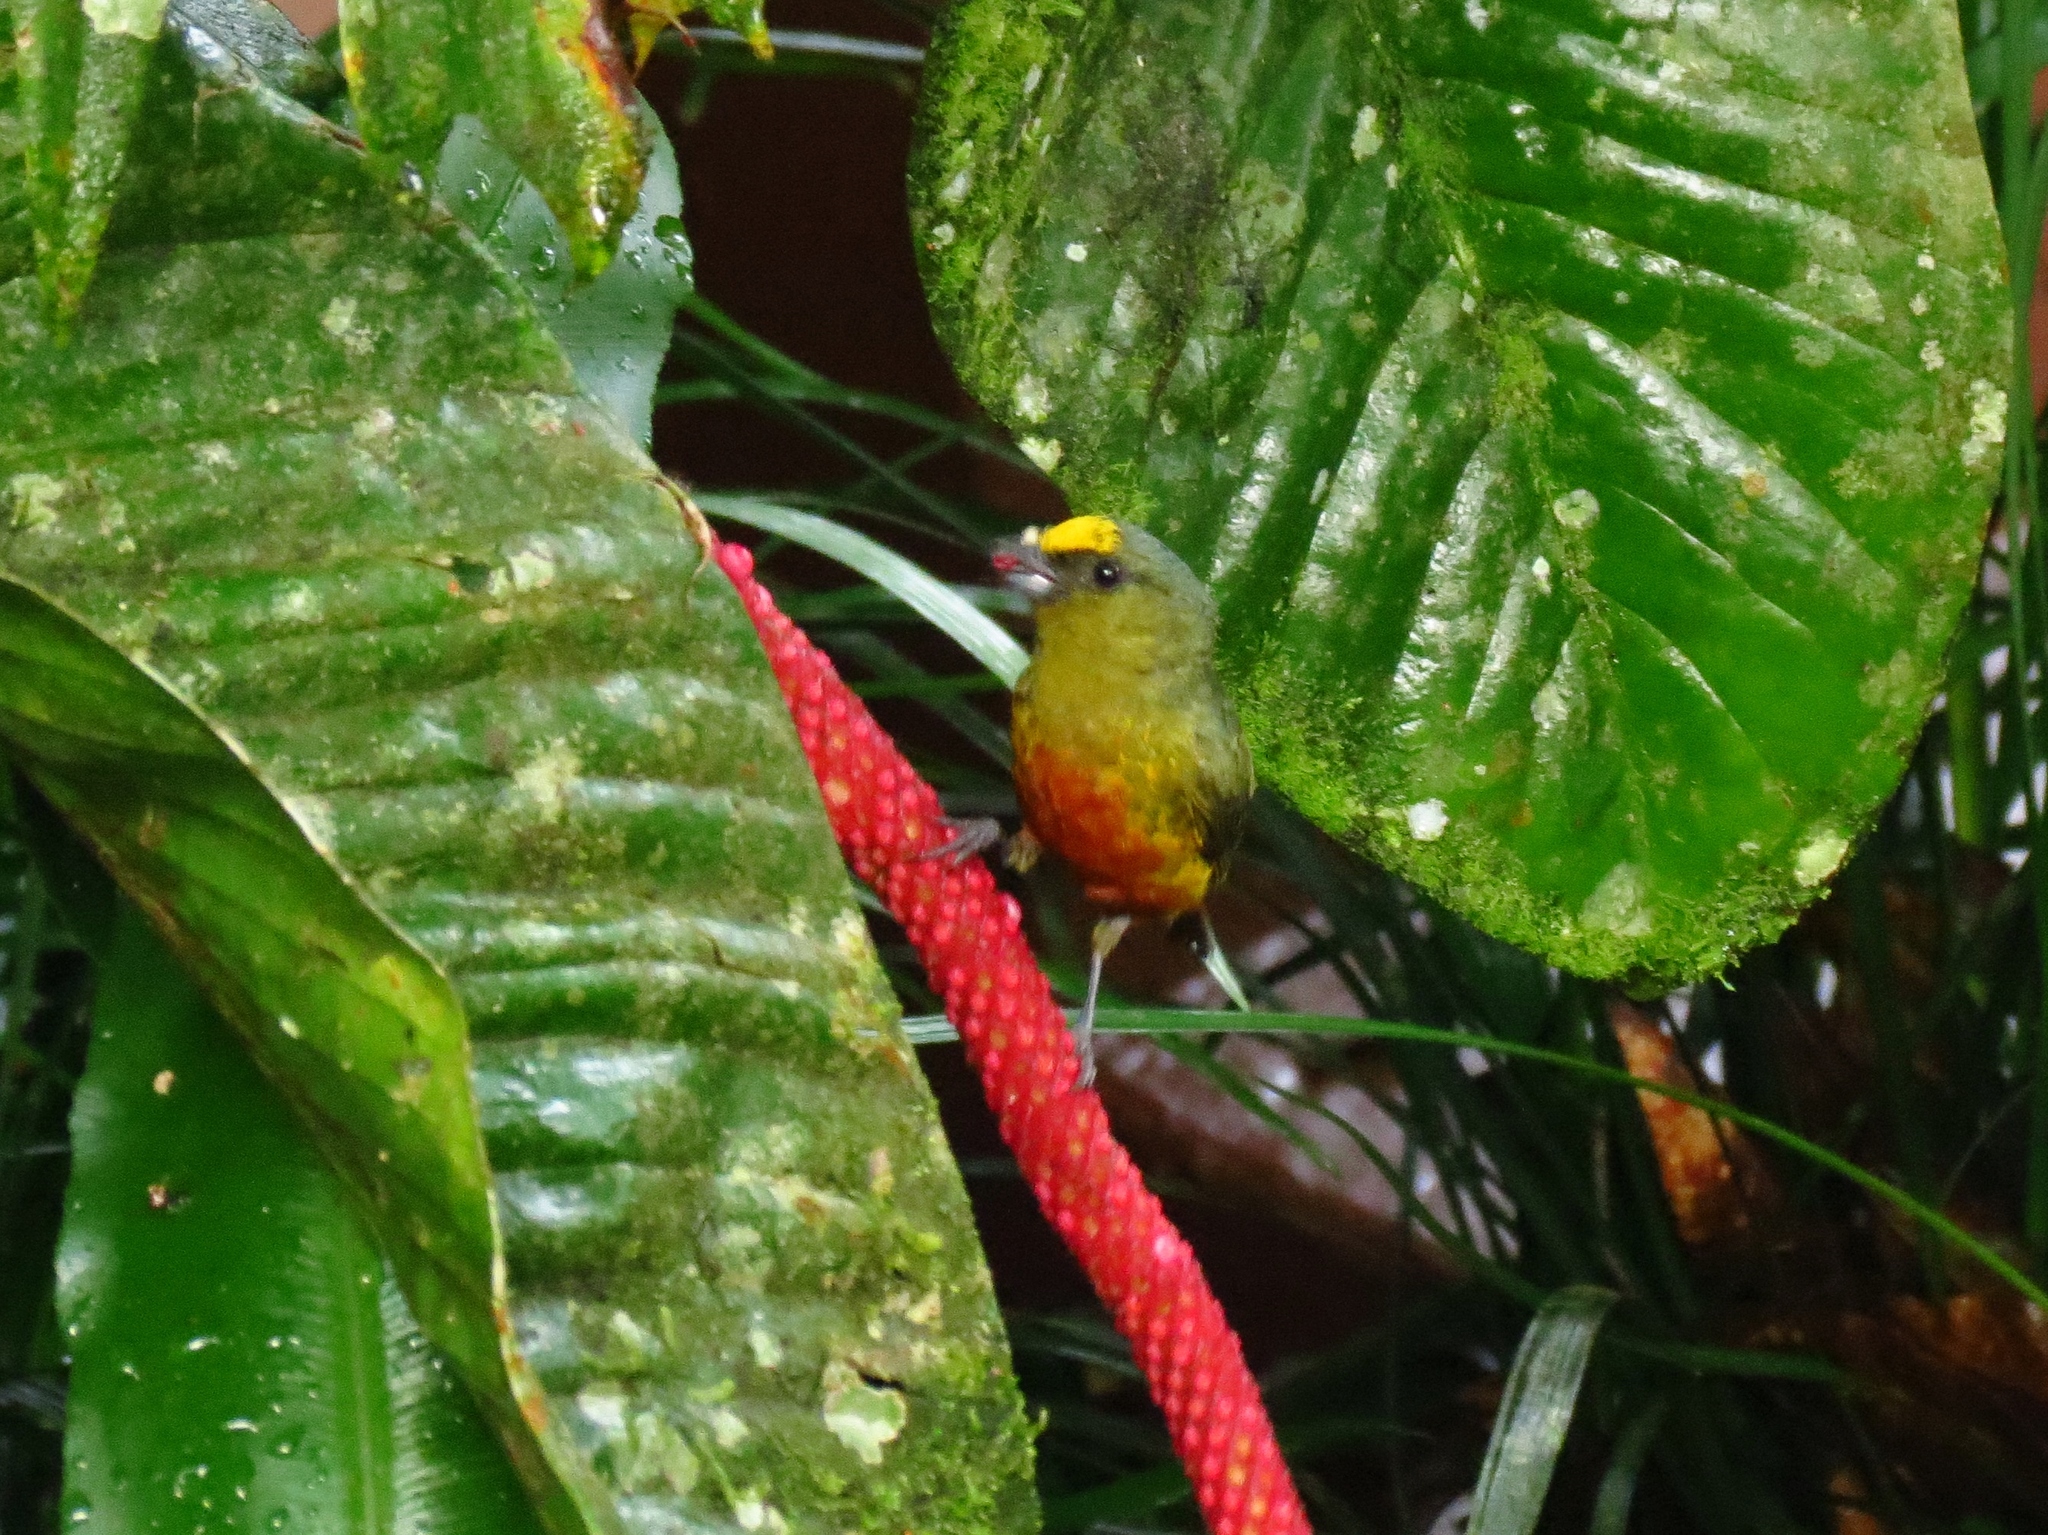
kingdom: Animalia
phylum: Chordata
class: Aves
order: Passeriformes
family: Fringillidae
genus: Euphonia
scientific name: Euphonia gouldi
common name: Olive-backed euphonia
